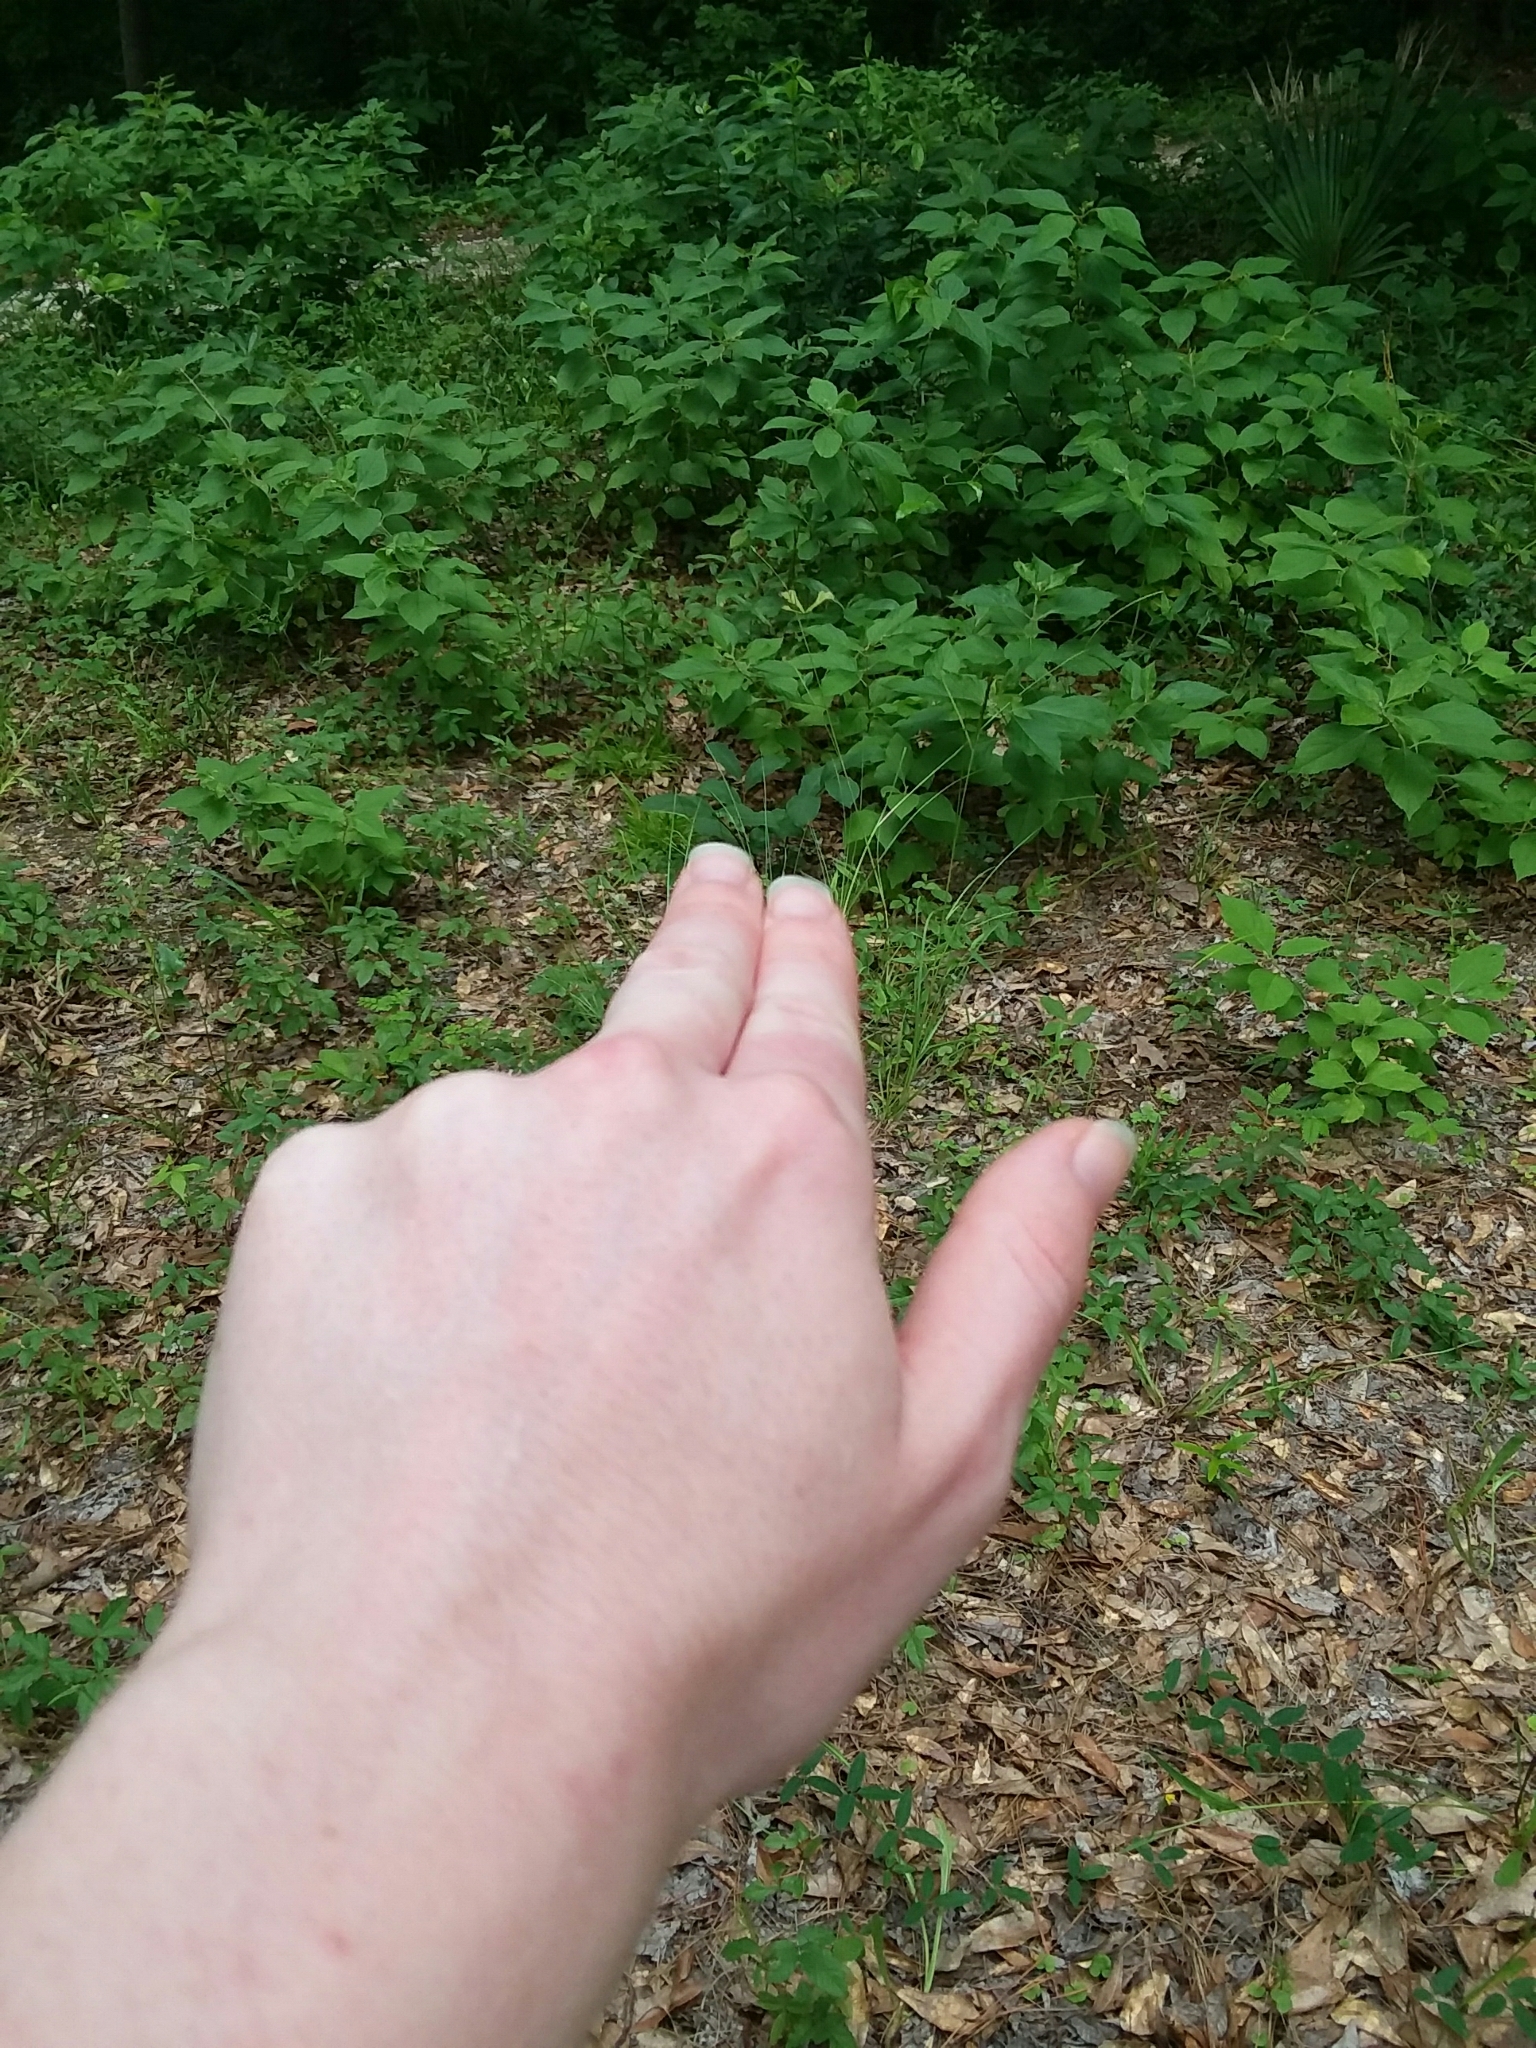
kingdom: Plantae
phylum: Tracheophyta
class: Magnoliopsida
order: Magnoliales
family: Annonaceae
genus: Asimina
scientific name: Asimina parviflora
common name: Dwarf pawpaw
